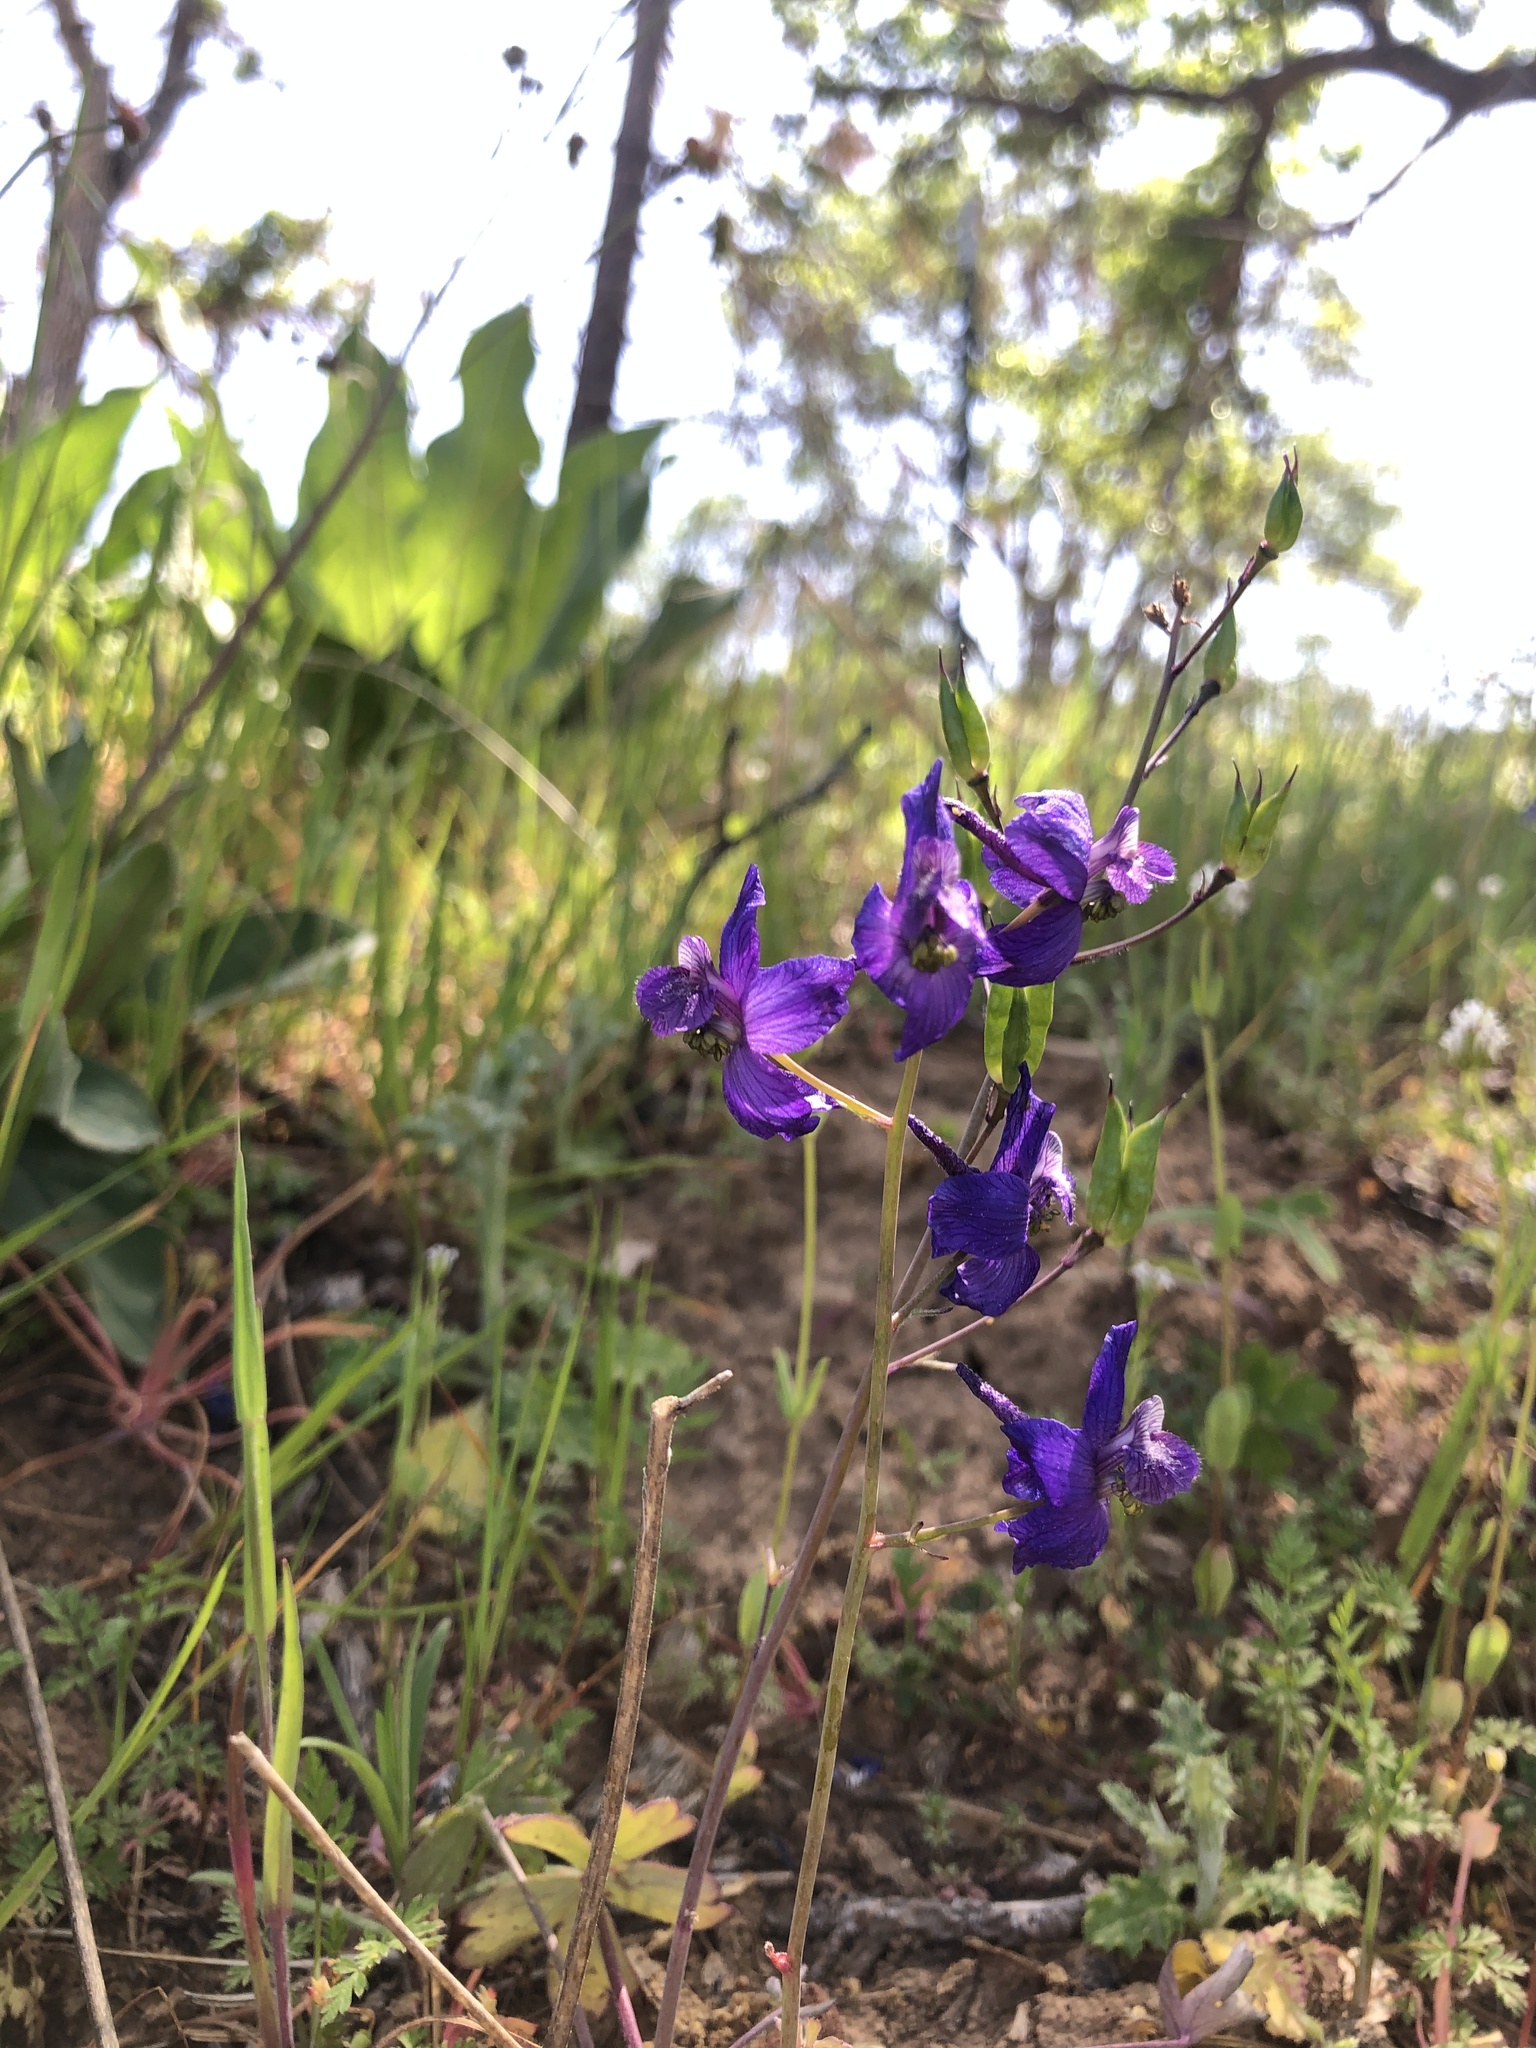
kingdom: Plantae
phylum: Tracheophyta
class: Magnoliopsida
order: Ranunculales
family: Ranunculaceae
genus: Delphinium
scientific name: Delphinium patens
